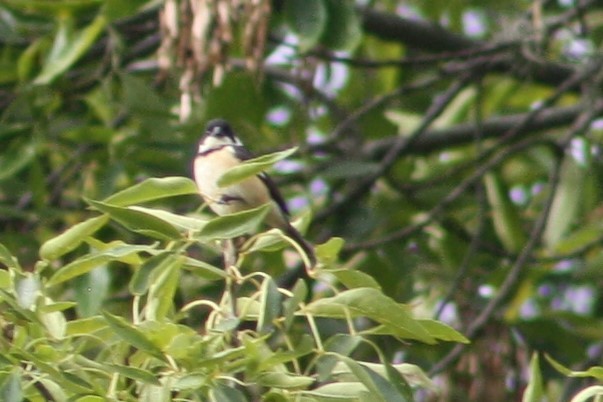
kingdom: Animalia
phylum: Chordata
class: Aves
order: Passeriformes
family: Thraupidae
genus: Sporophila
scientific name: Sporophila torqueola
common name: White-collared seedeater
